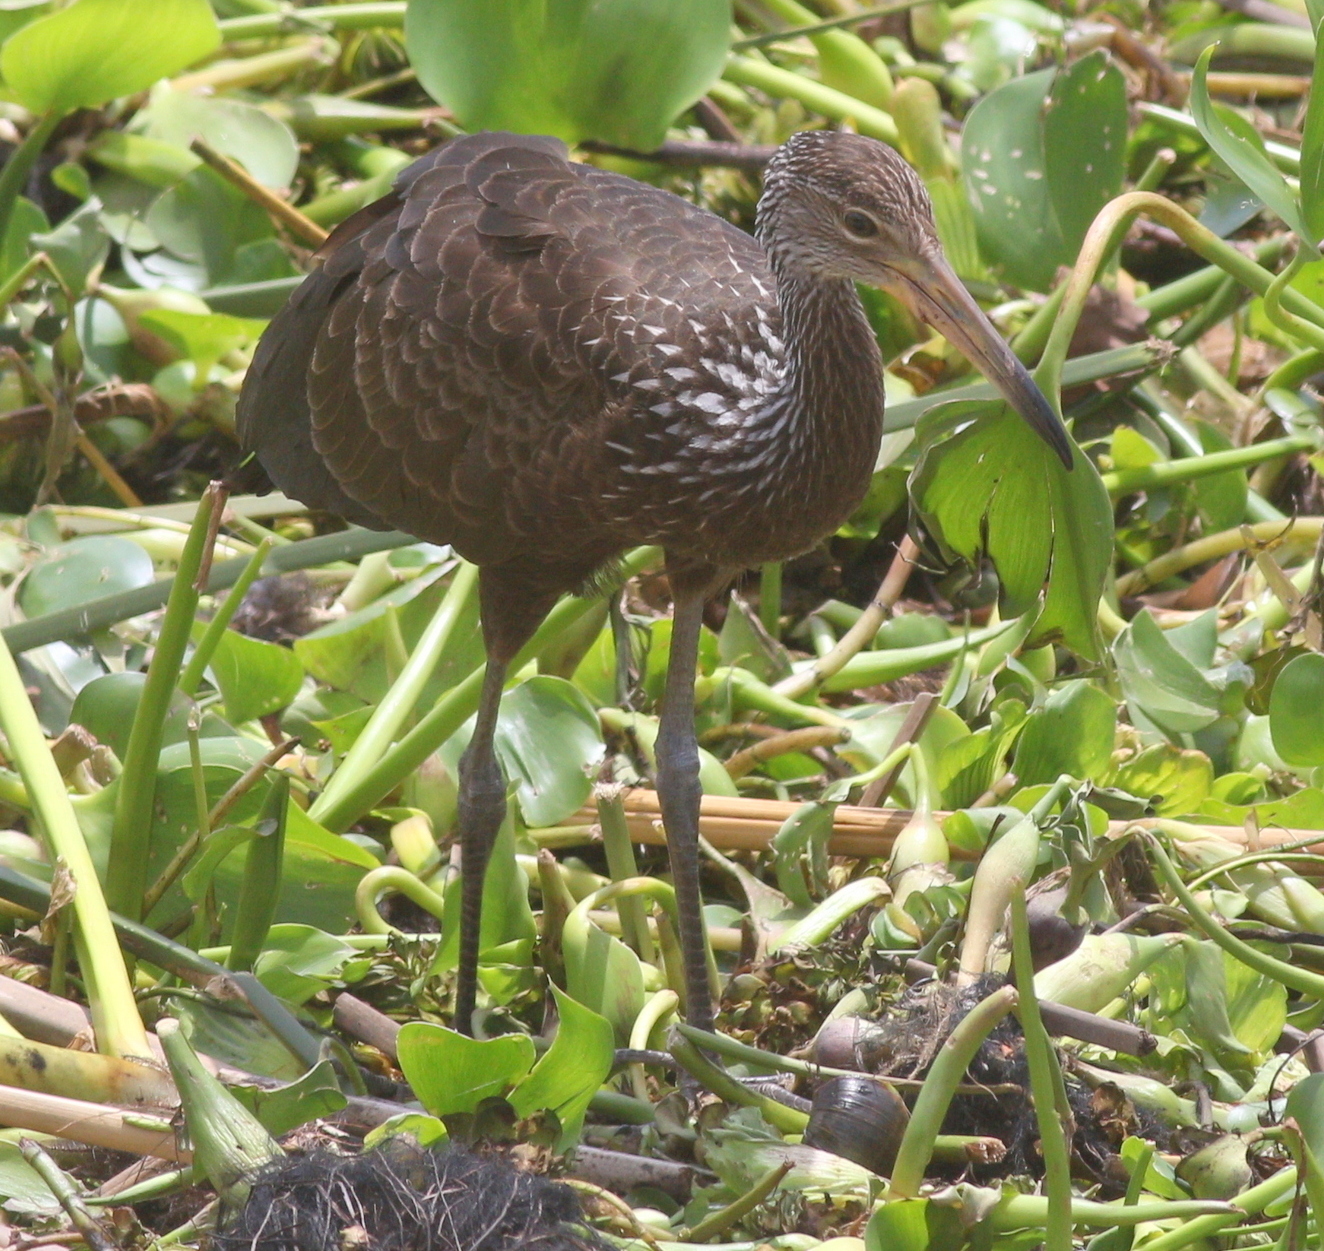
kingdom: Animalia
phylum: Chordata
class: Aves
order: Gruiformes
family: Aramidae
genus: Aramus
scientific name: Aramus guarauna
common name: Limpkin
